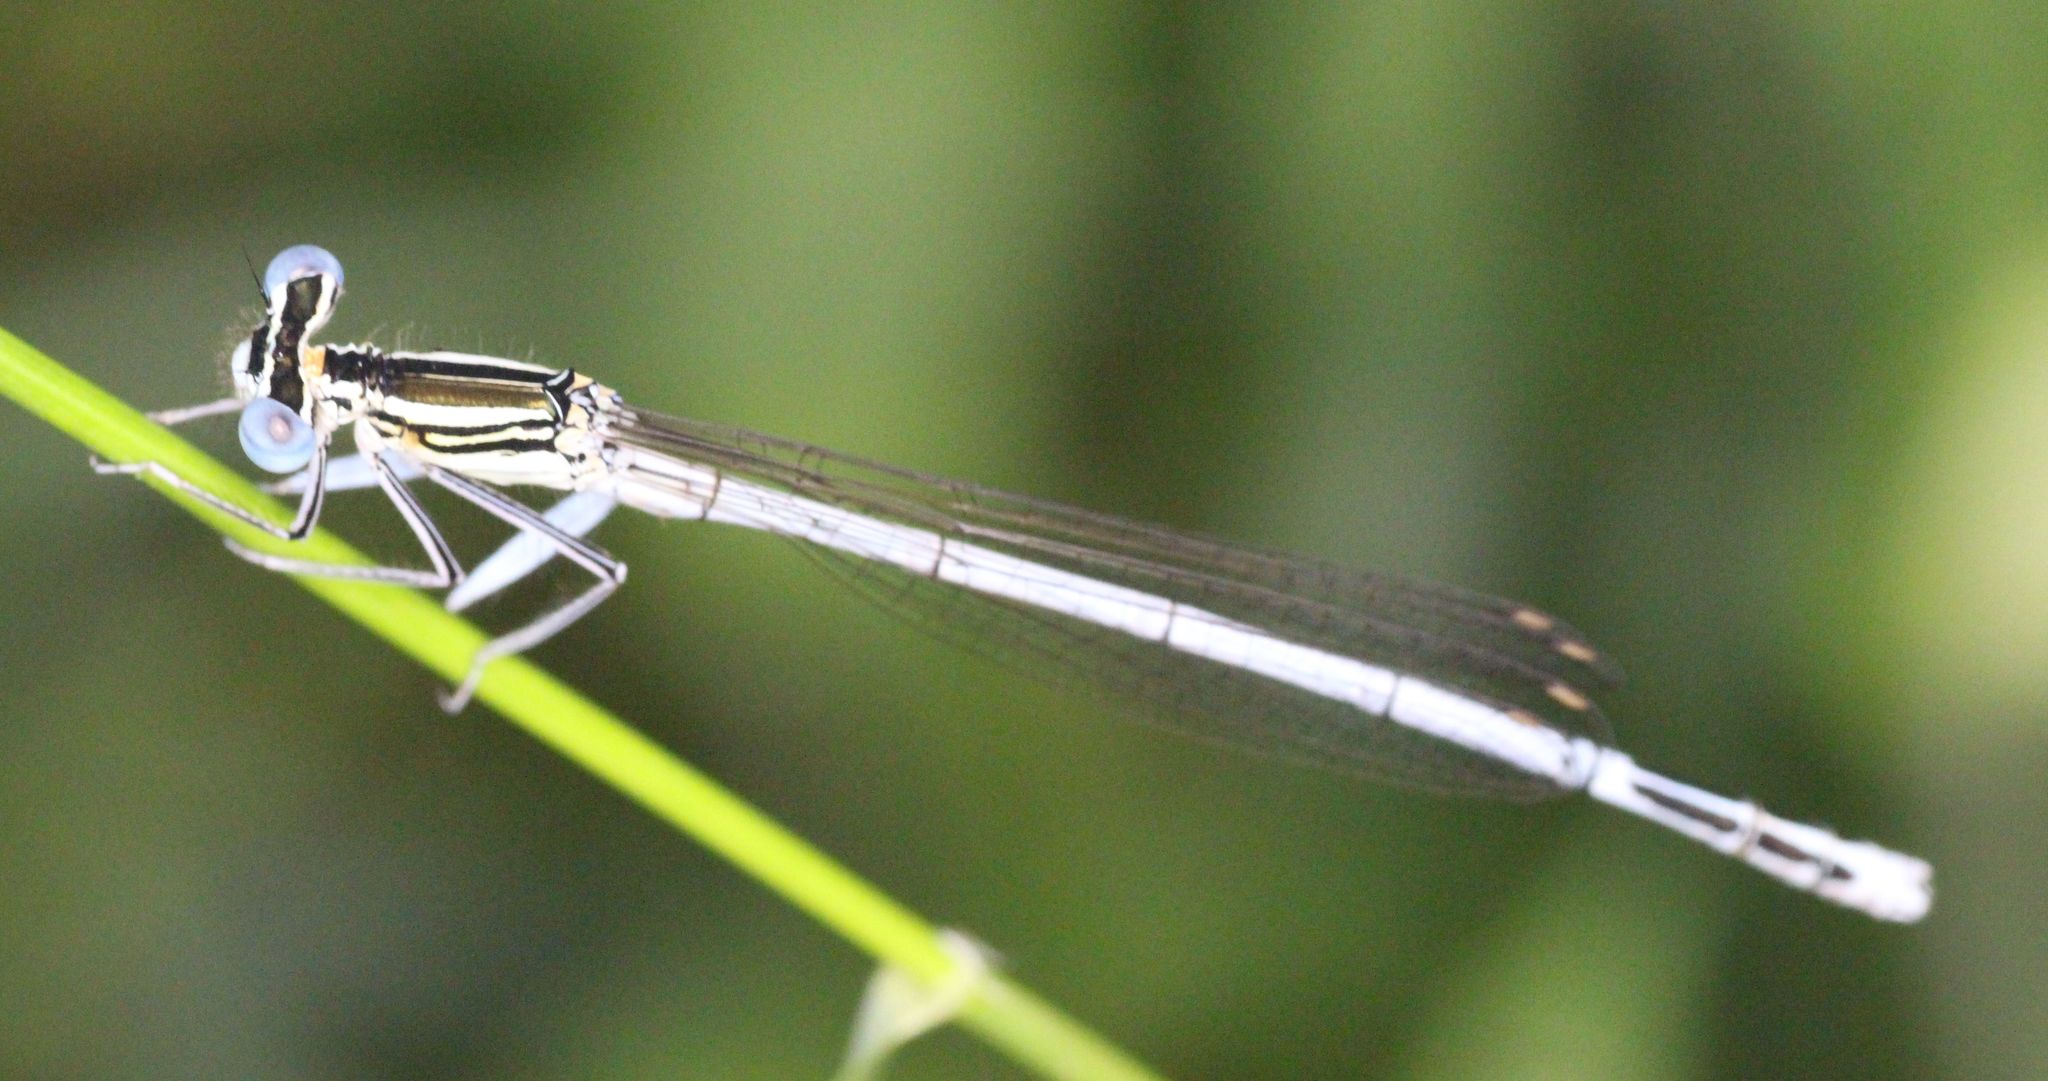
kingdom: Animalia
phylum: Arthropoda
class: Insecta
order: Odonata
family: Platycnemididae
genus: Platycnemis
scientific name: Platycnemis pennipes
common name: White-legged damselfly
